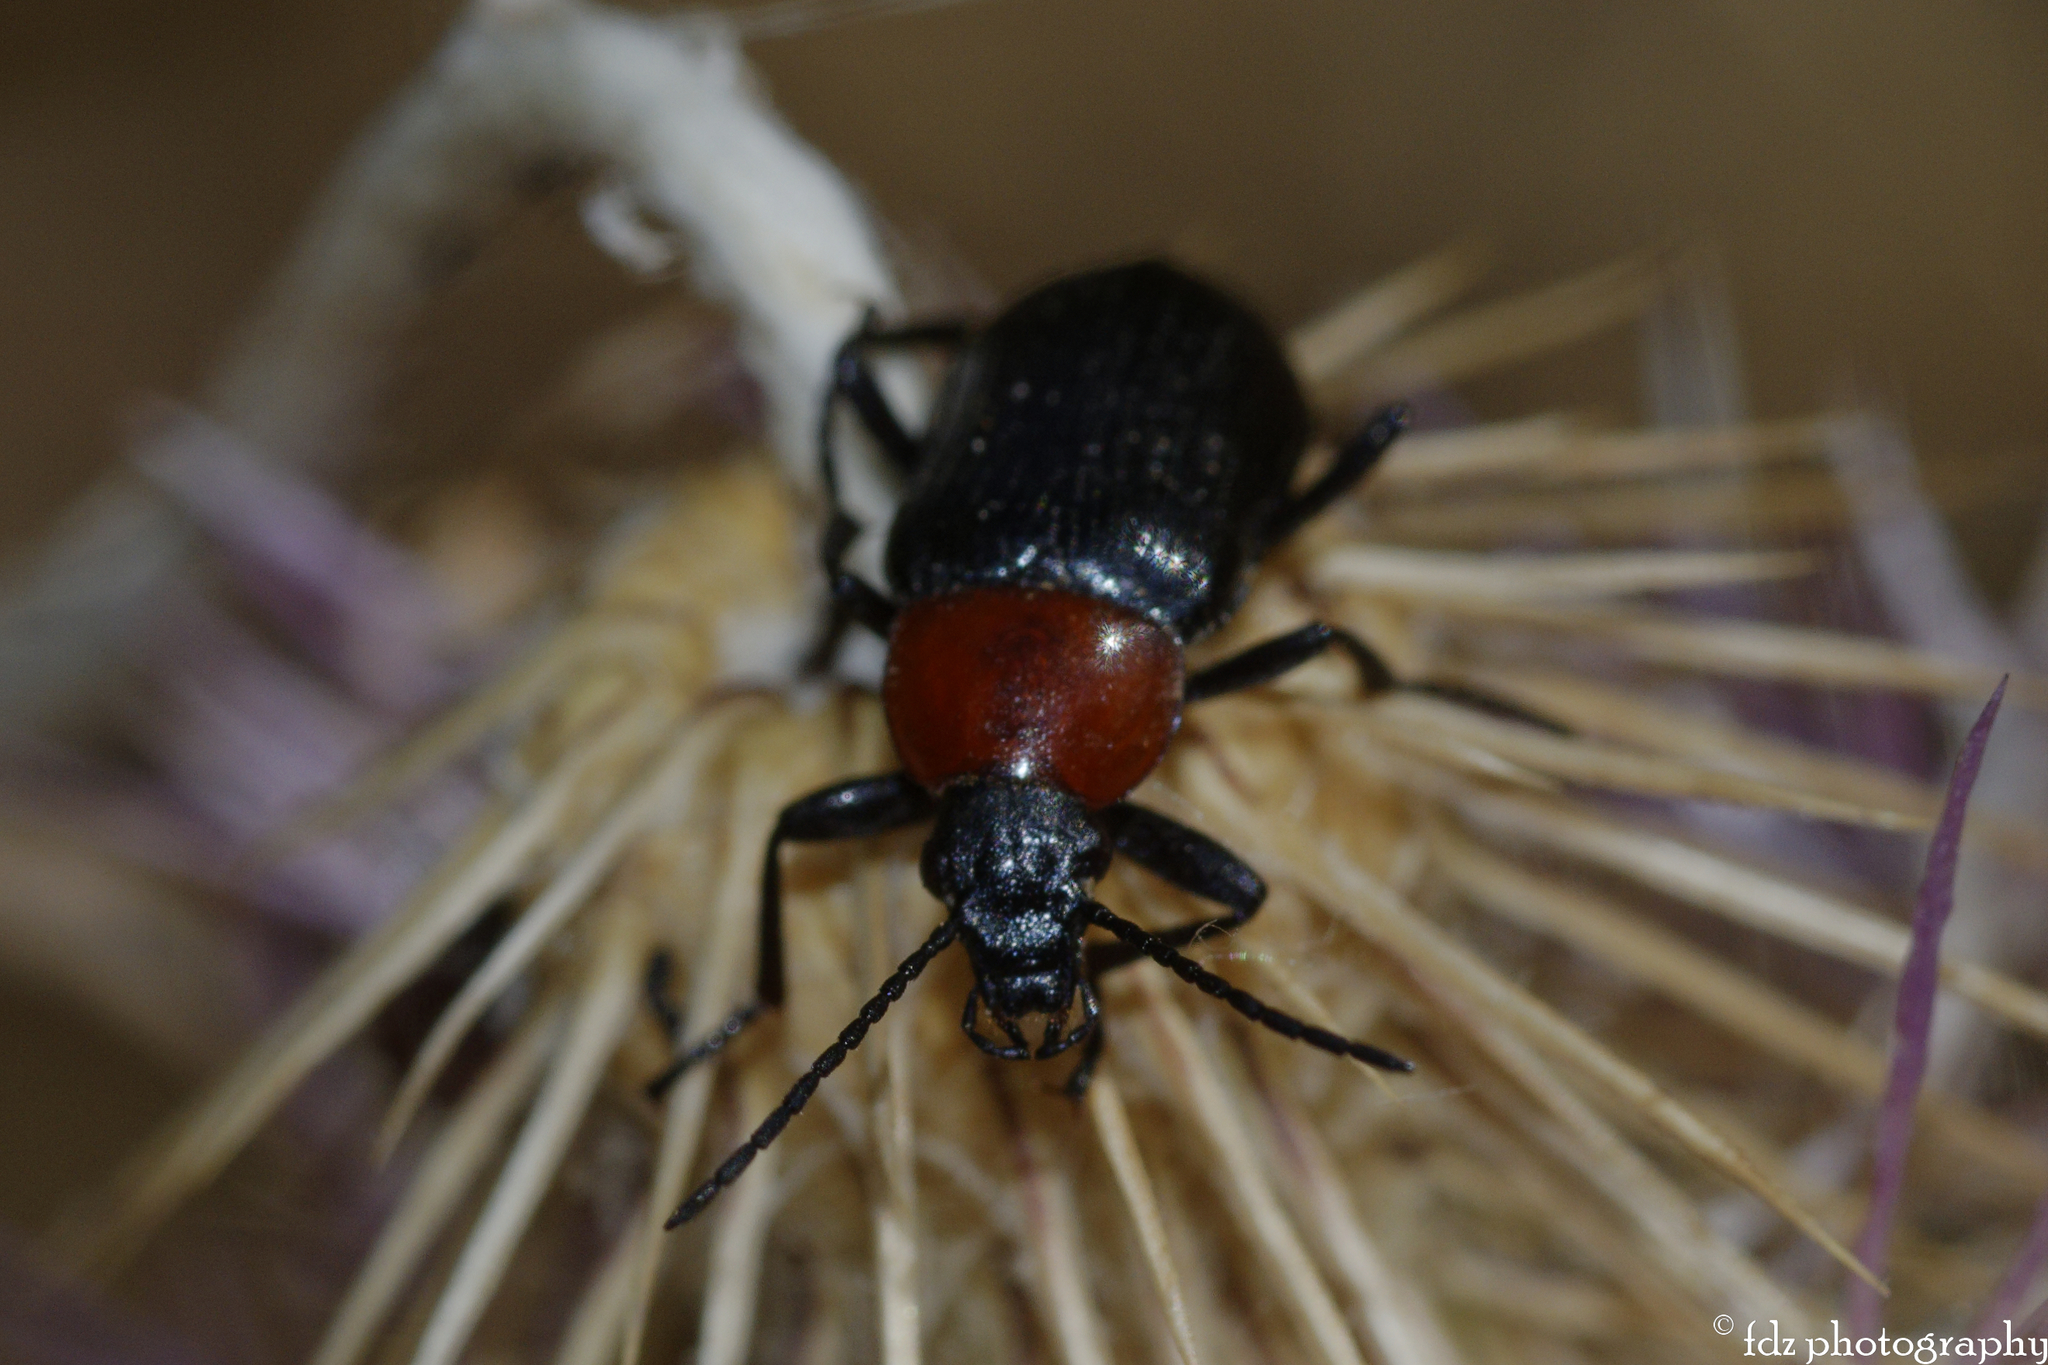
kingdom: Animalia
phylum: Arthropoda
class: Insecta
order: Coleoptera
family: Tenebrionidae
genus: Heliotaurus
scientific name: Heliotaurus ruficollis
